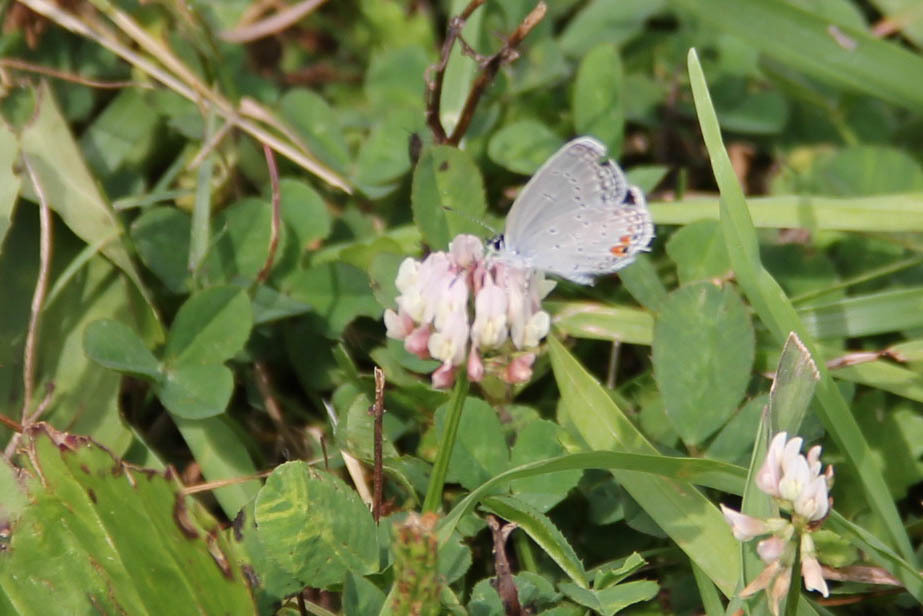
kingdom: Animalia
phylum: Arthropoda
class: Insecta
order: Lepidoptera
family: Lycaenidae
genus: Elkalyce
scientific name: Elkalyce comyntas
